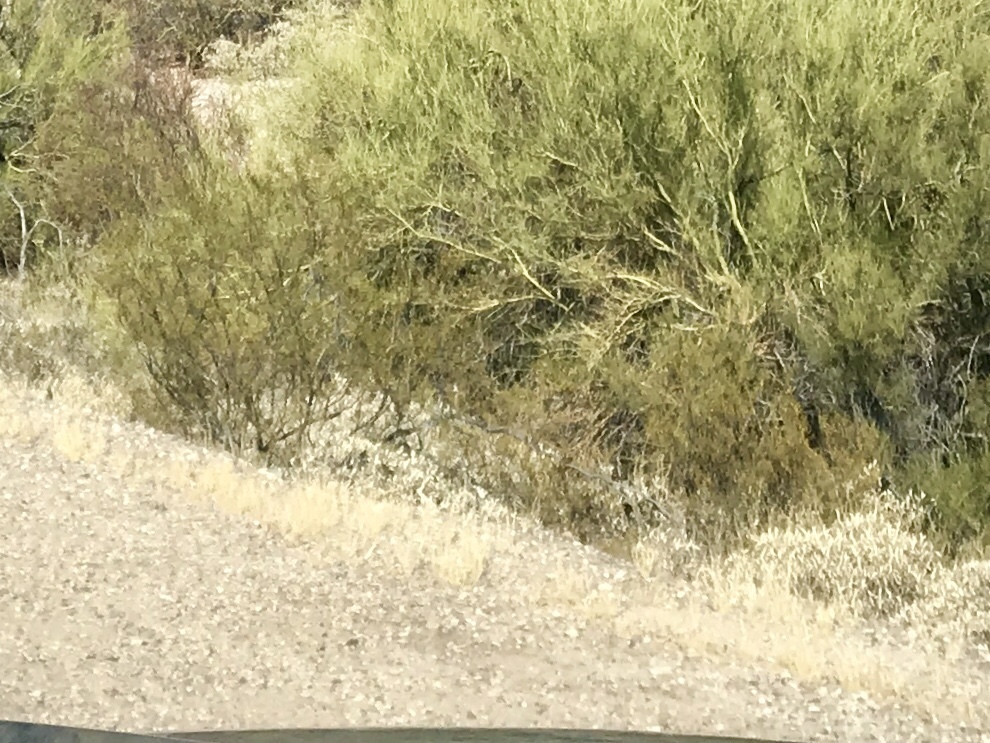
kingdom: Plantae
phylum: Tracheophyta
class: Magnoliopsida
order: Zygophyllales
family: Zygophyllaceae
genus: Larrea
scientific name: Larrea tridentata
